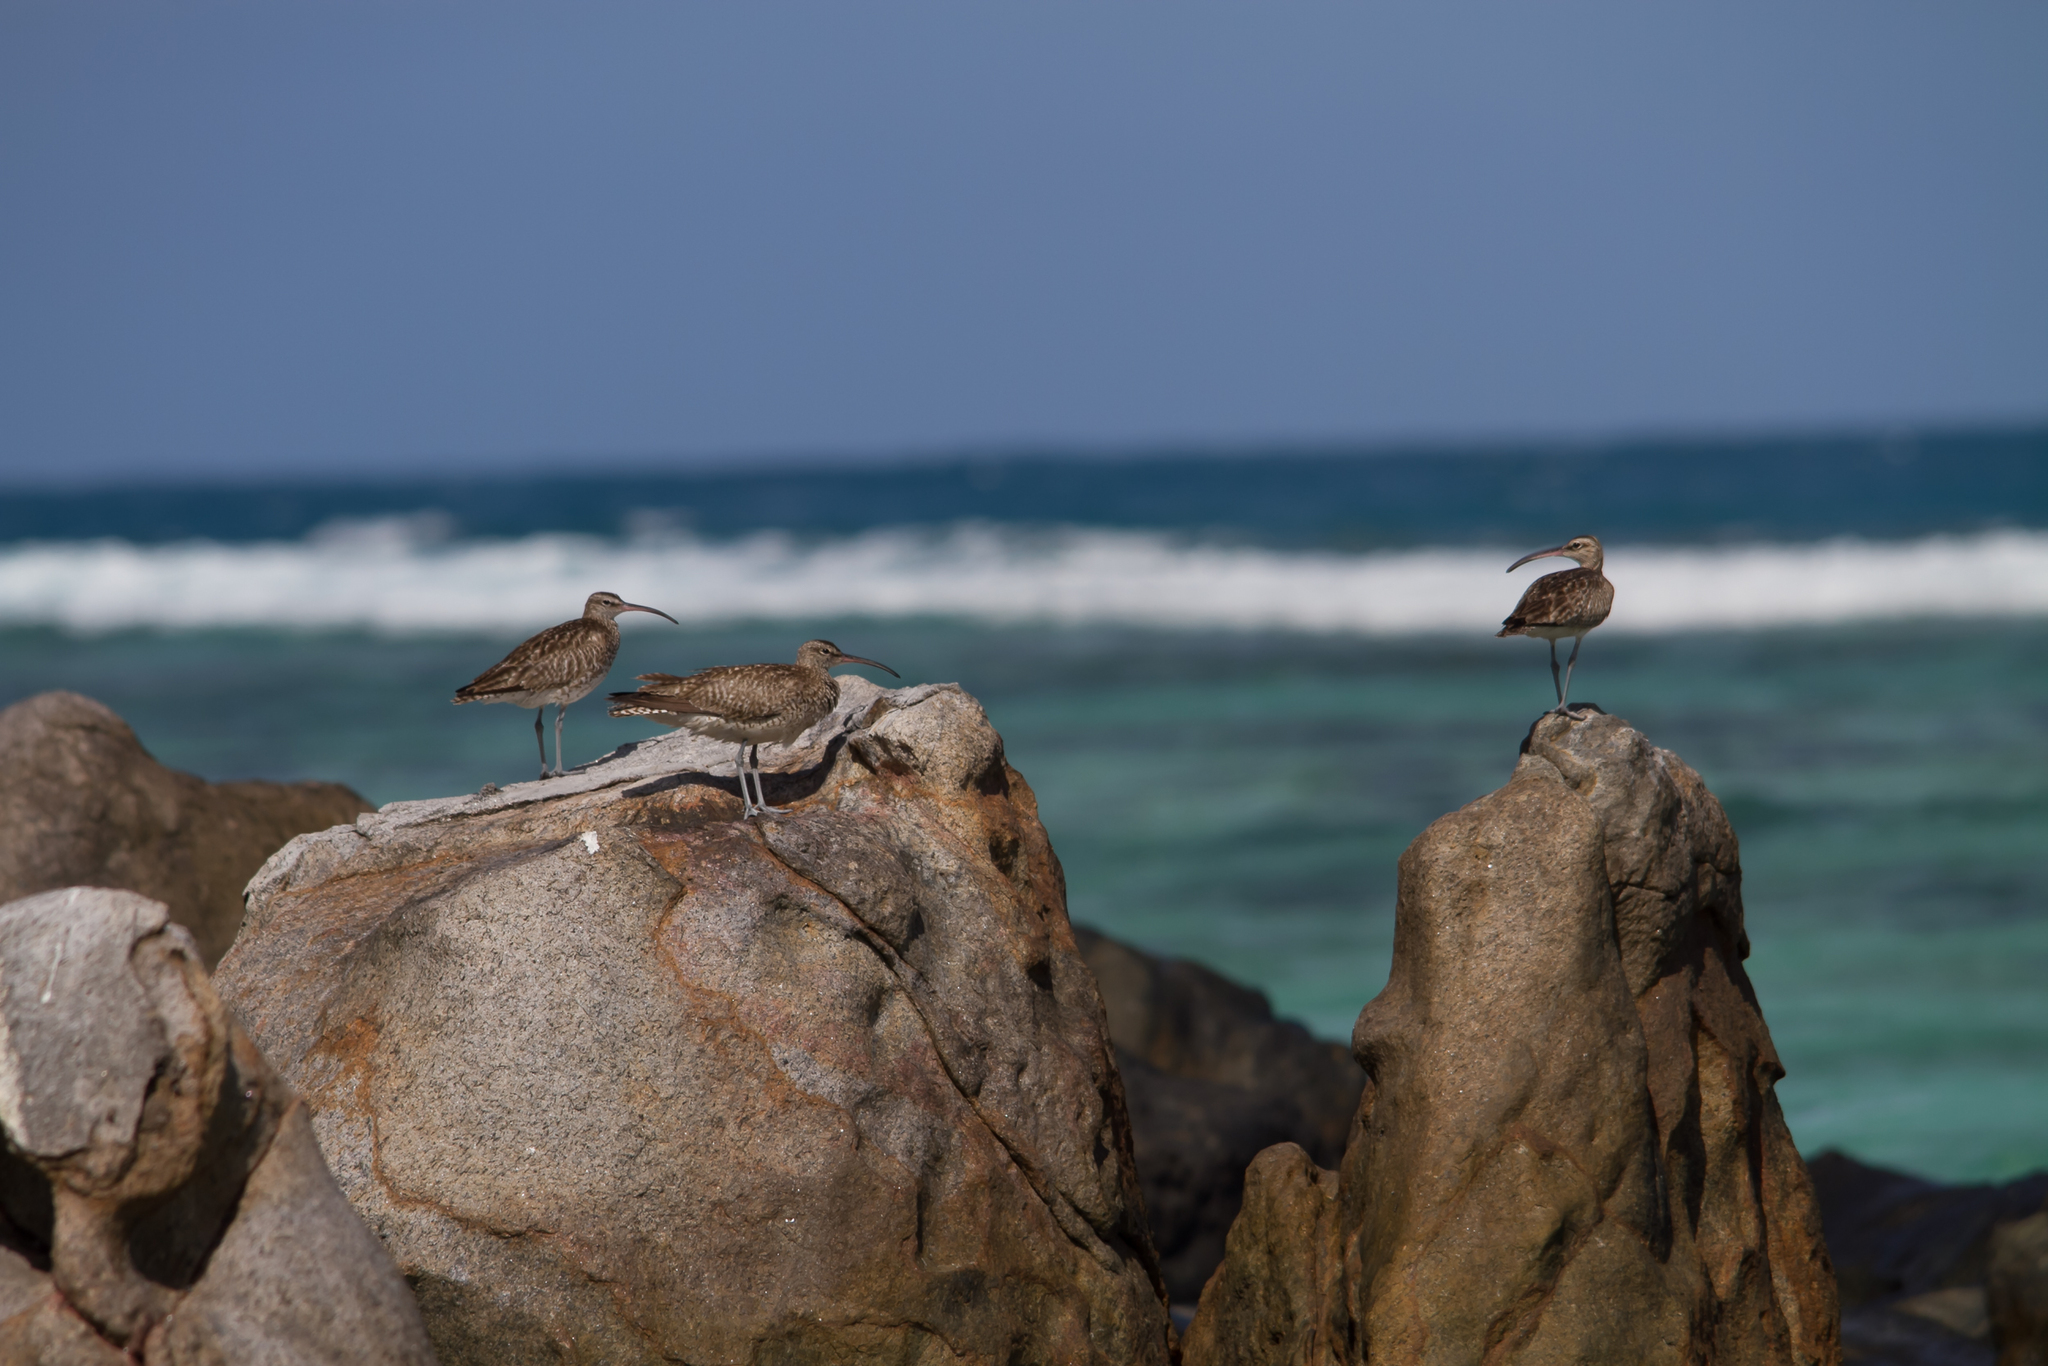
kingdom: Animalia
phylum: Chordata
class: Aves
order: Charadriiformes
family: Scolopacidae
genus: Numenius
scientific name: Numenius phaeopus
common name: Whimbrel
